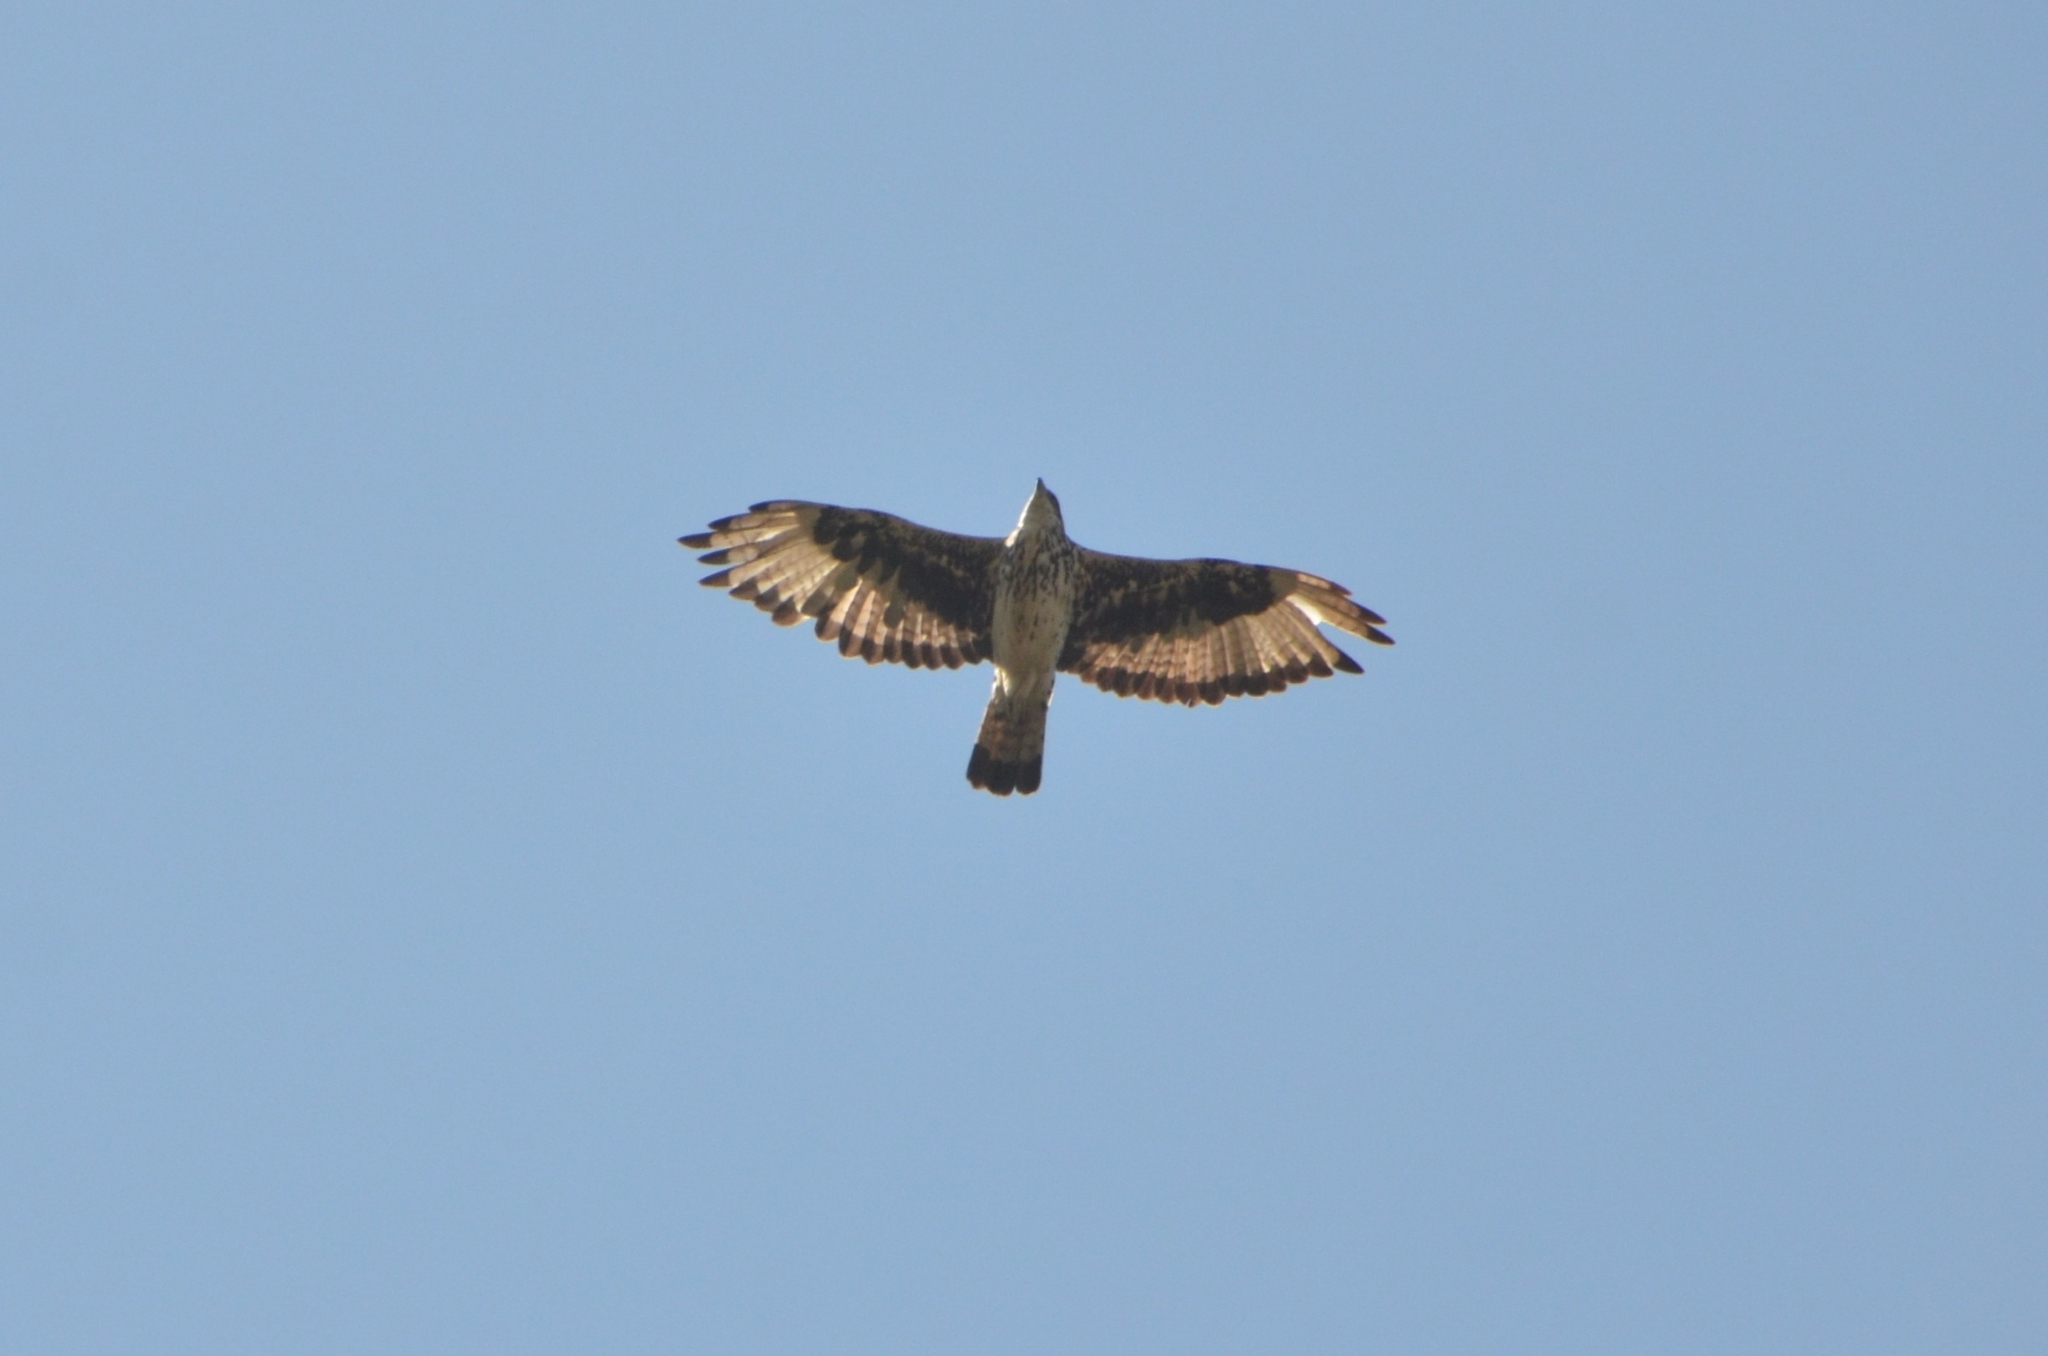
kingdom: Animalia
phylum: Chordata
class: Aves
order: Accipitriformes
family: Accipitridae
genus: Aquila
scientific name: Aquila spilogaster
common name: African hawk-eagle
